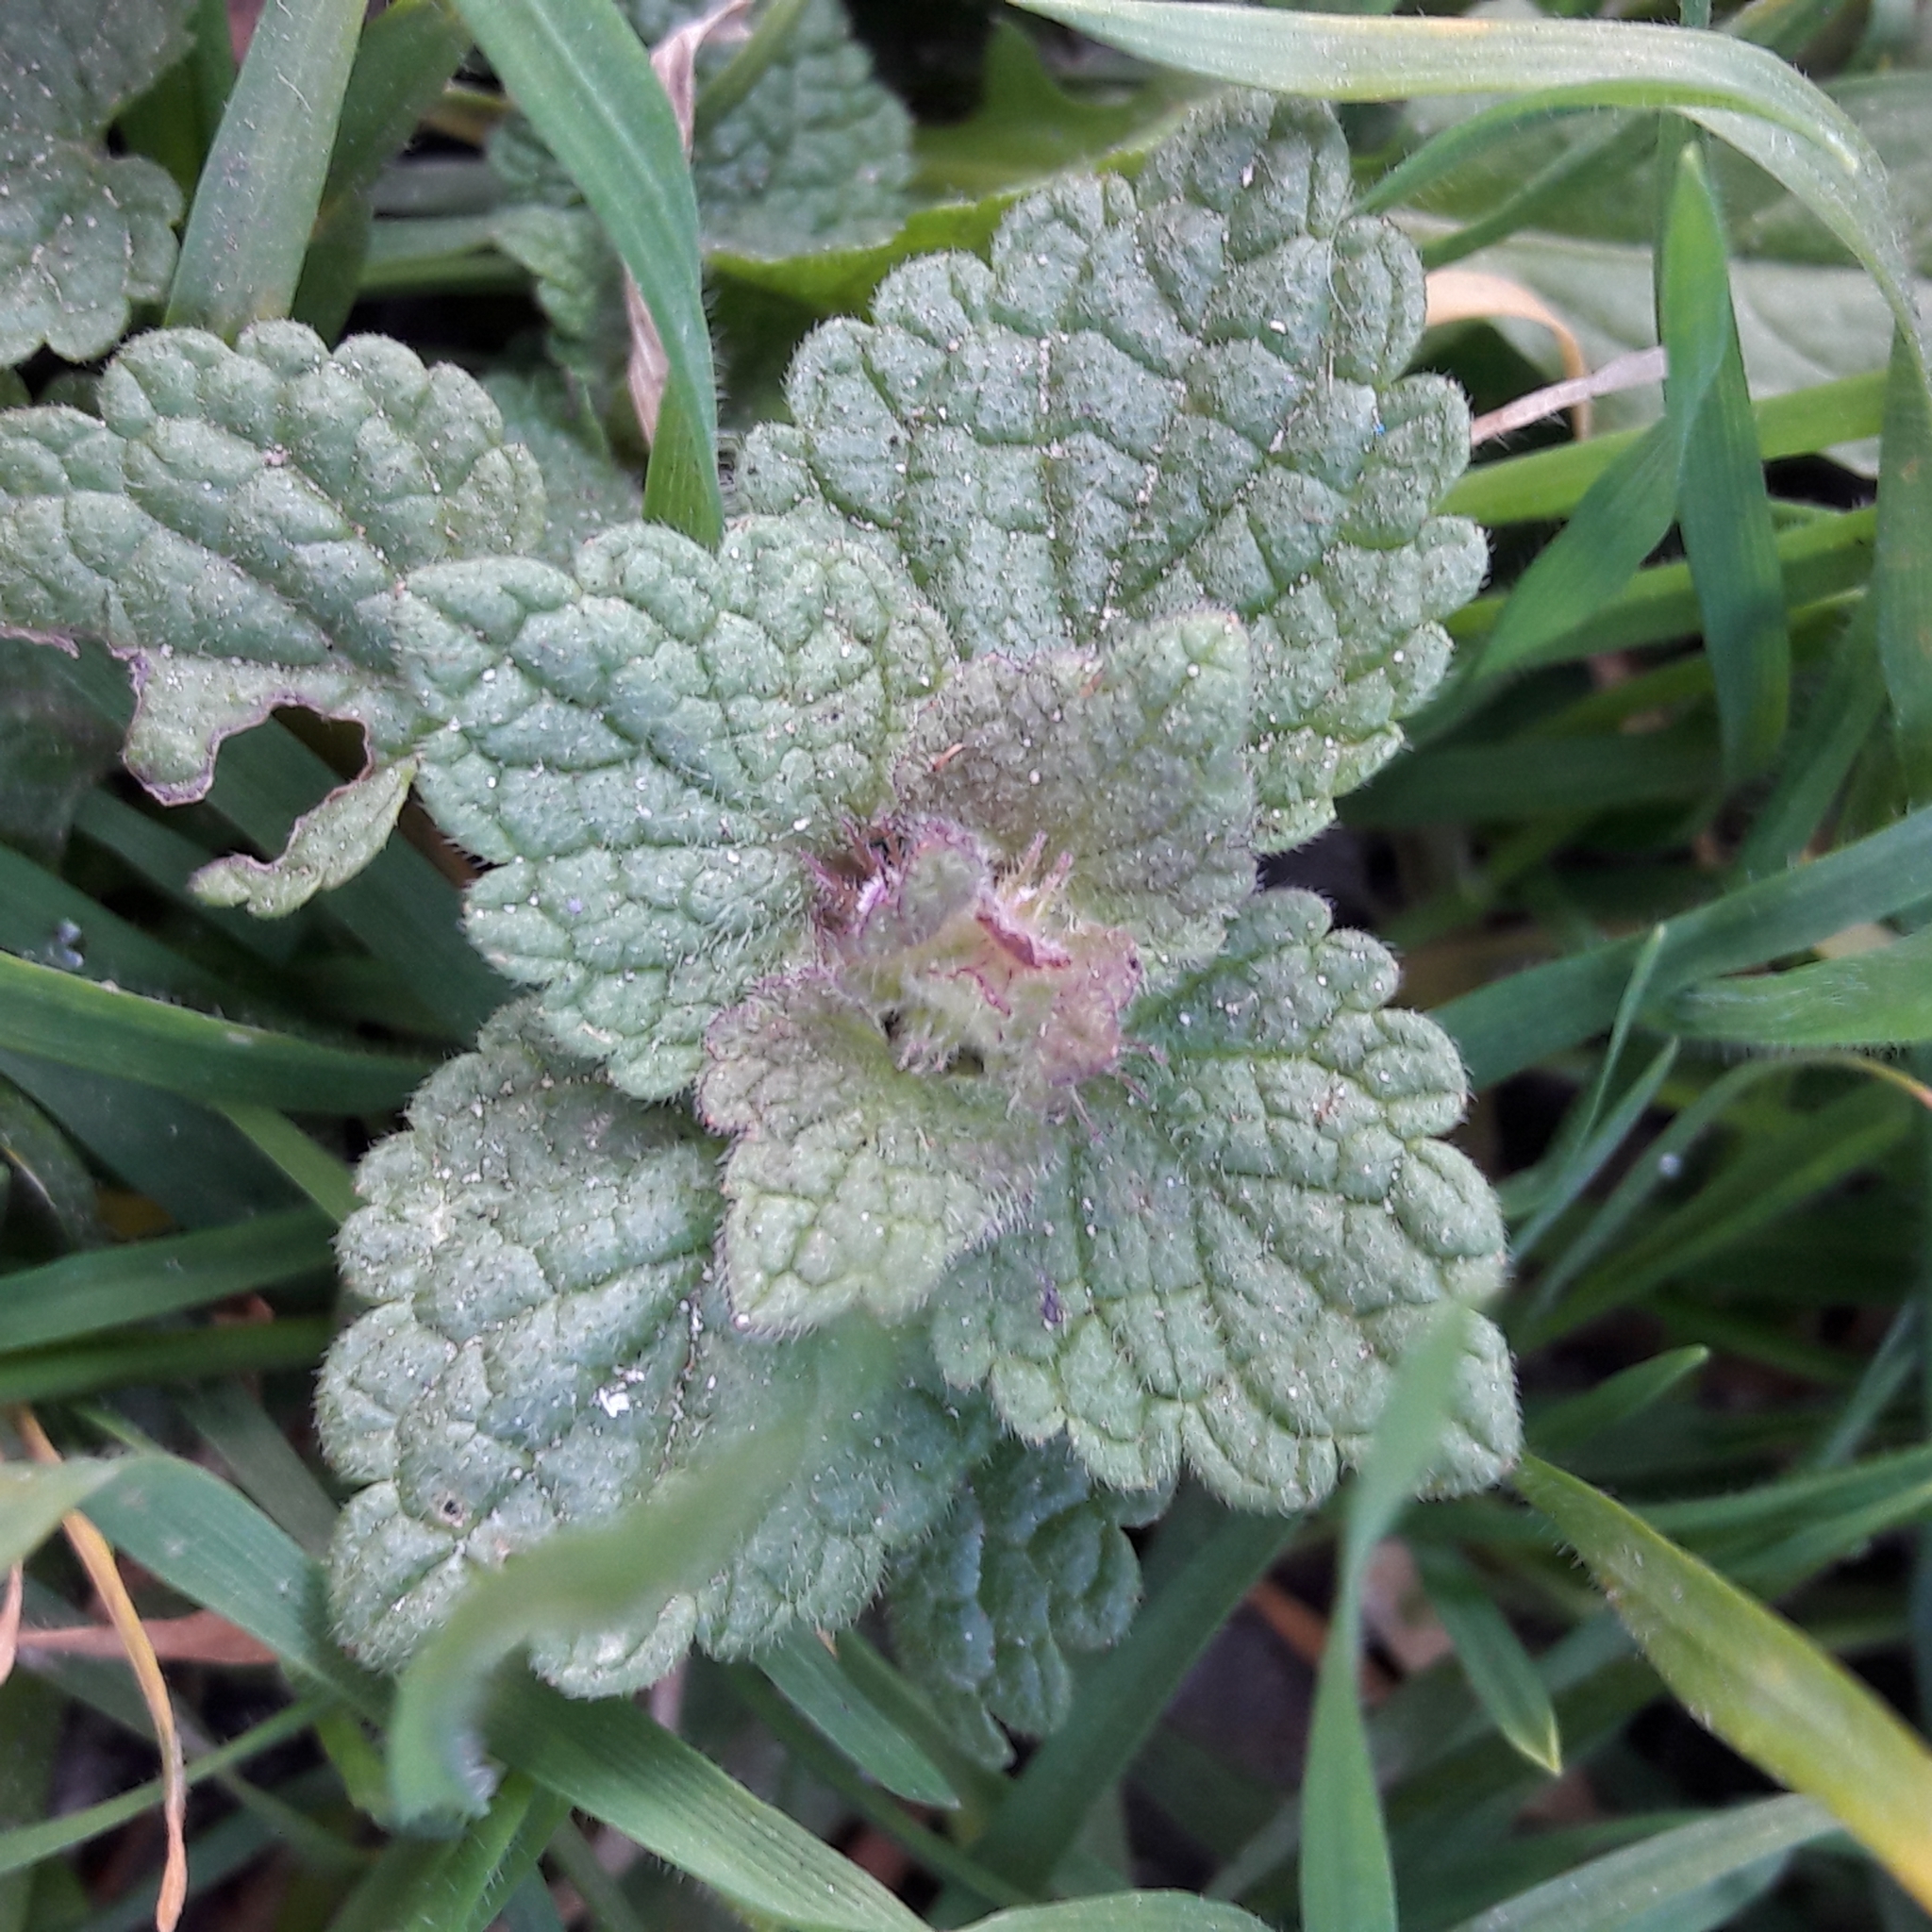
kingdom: Plantae
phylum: Tracheophyta
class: Magnoliopsida
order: Lamiales
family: Lamiaceae
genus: Lamium
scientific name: Lamium purpureum
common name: Red dead-nettle
